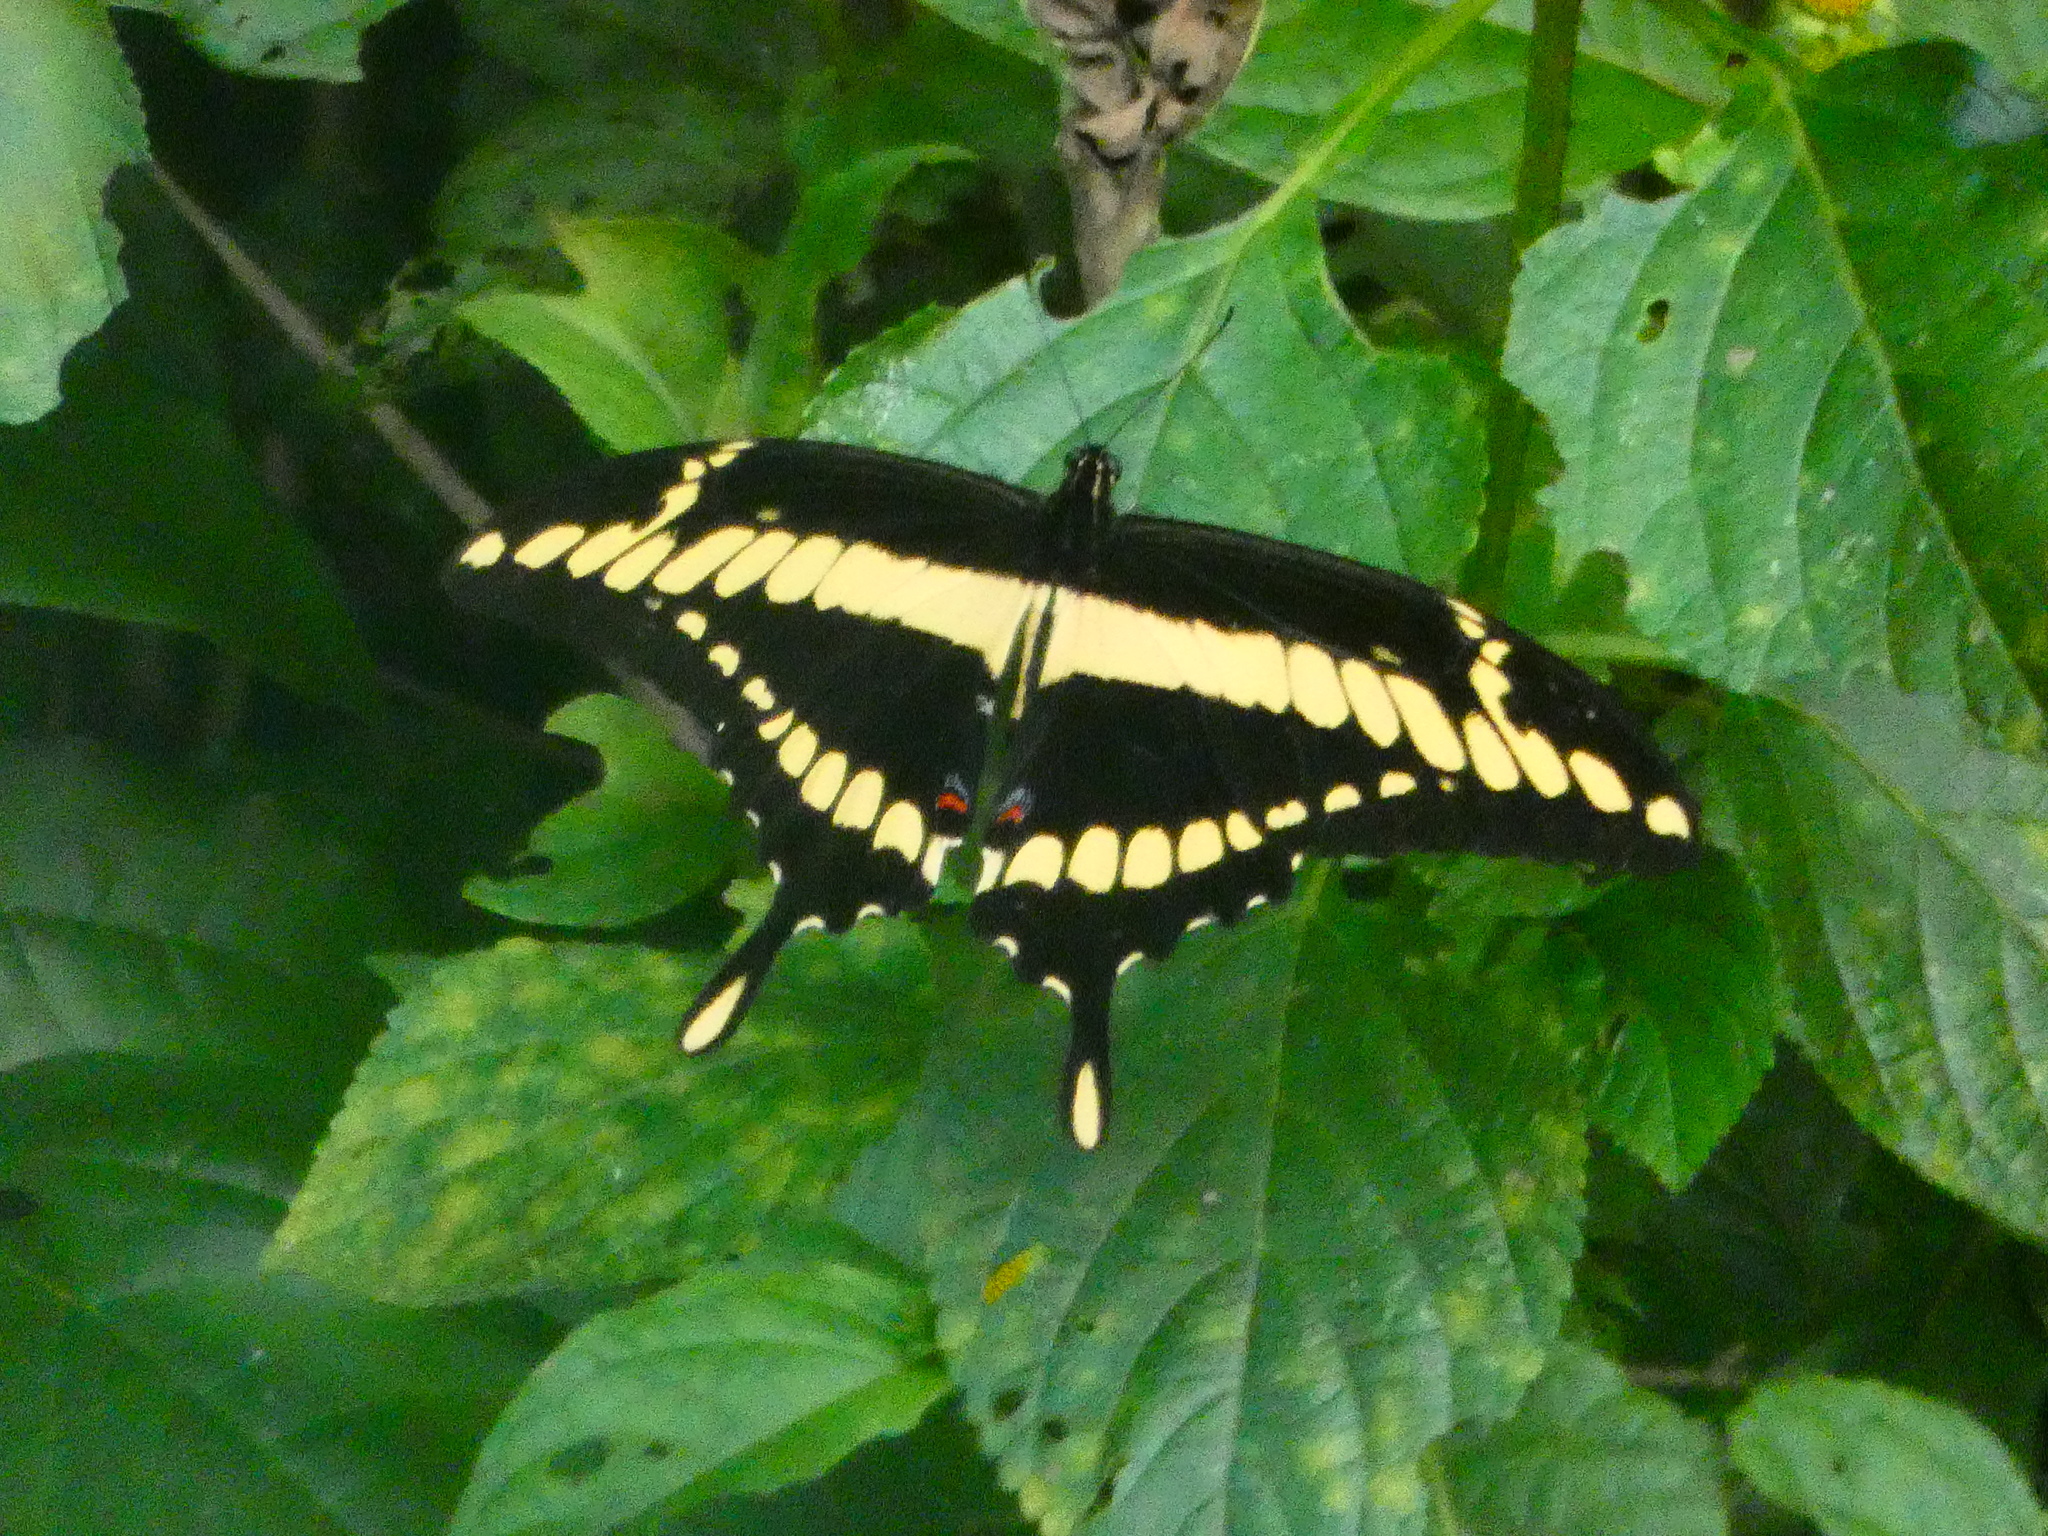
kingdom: Animalia
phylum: Arthropoda
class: Insecta
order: Lepidoptera
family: Papilionidae
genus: Papilio
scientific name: Papilio thoas
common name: King swallowtail
